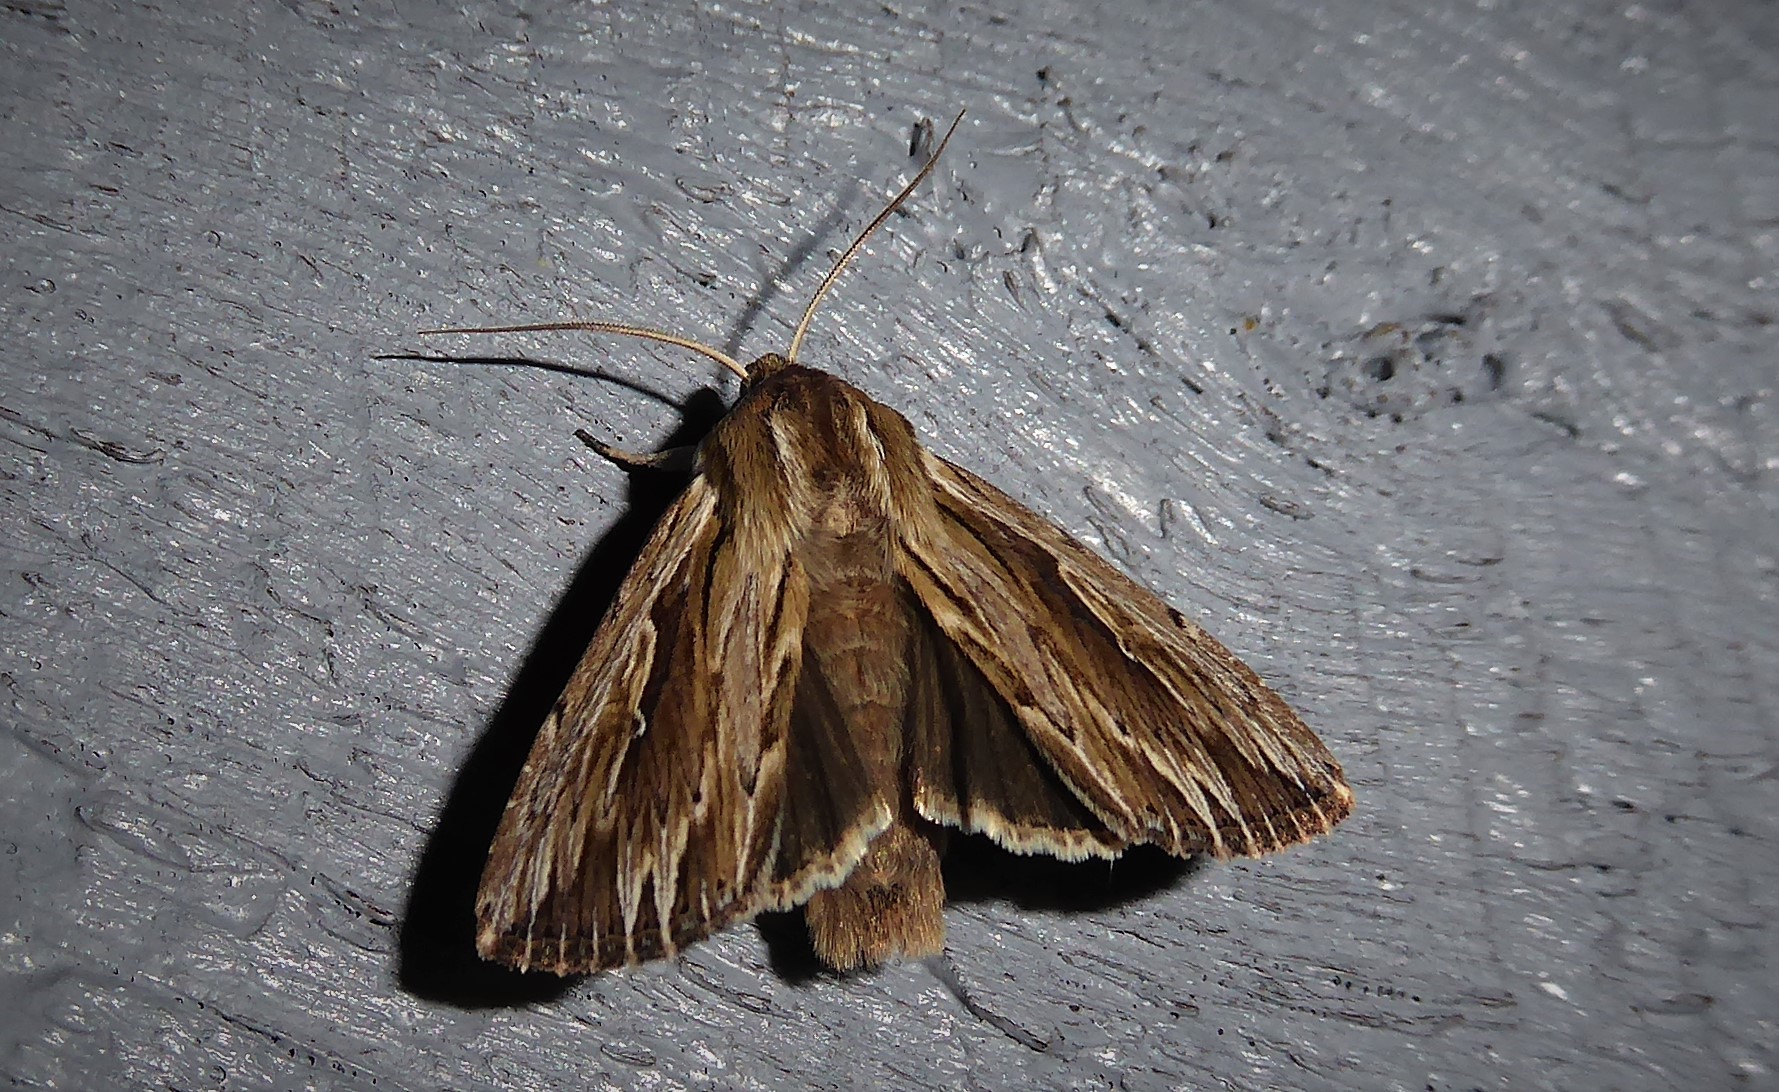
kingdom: Animalia
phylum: Arthropoda
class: Insecta
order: Lepidoptera
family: Noctuidae
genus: Persectania
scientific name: Persectania aversa
